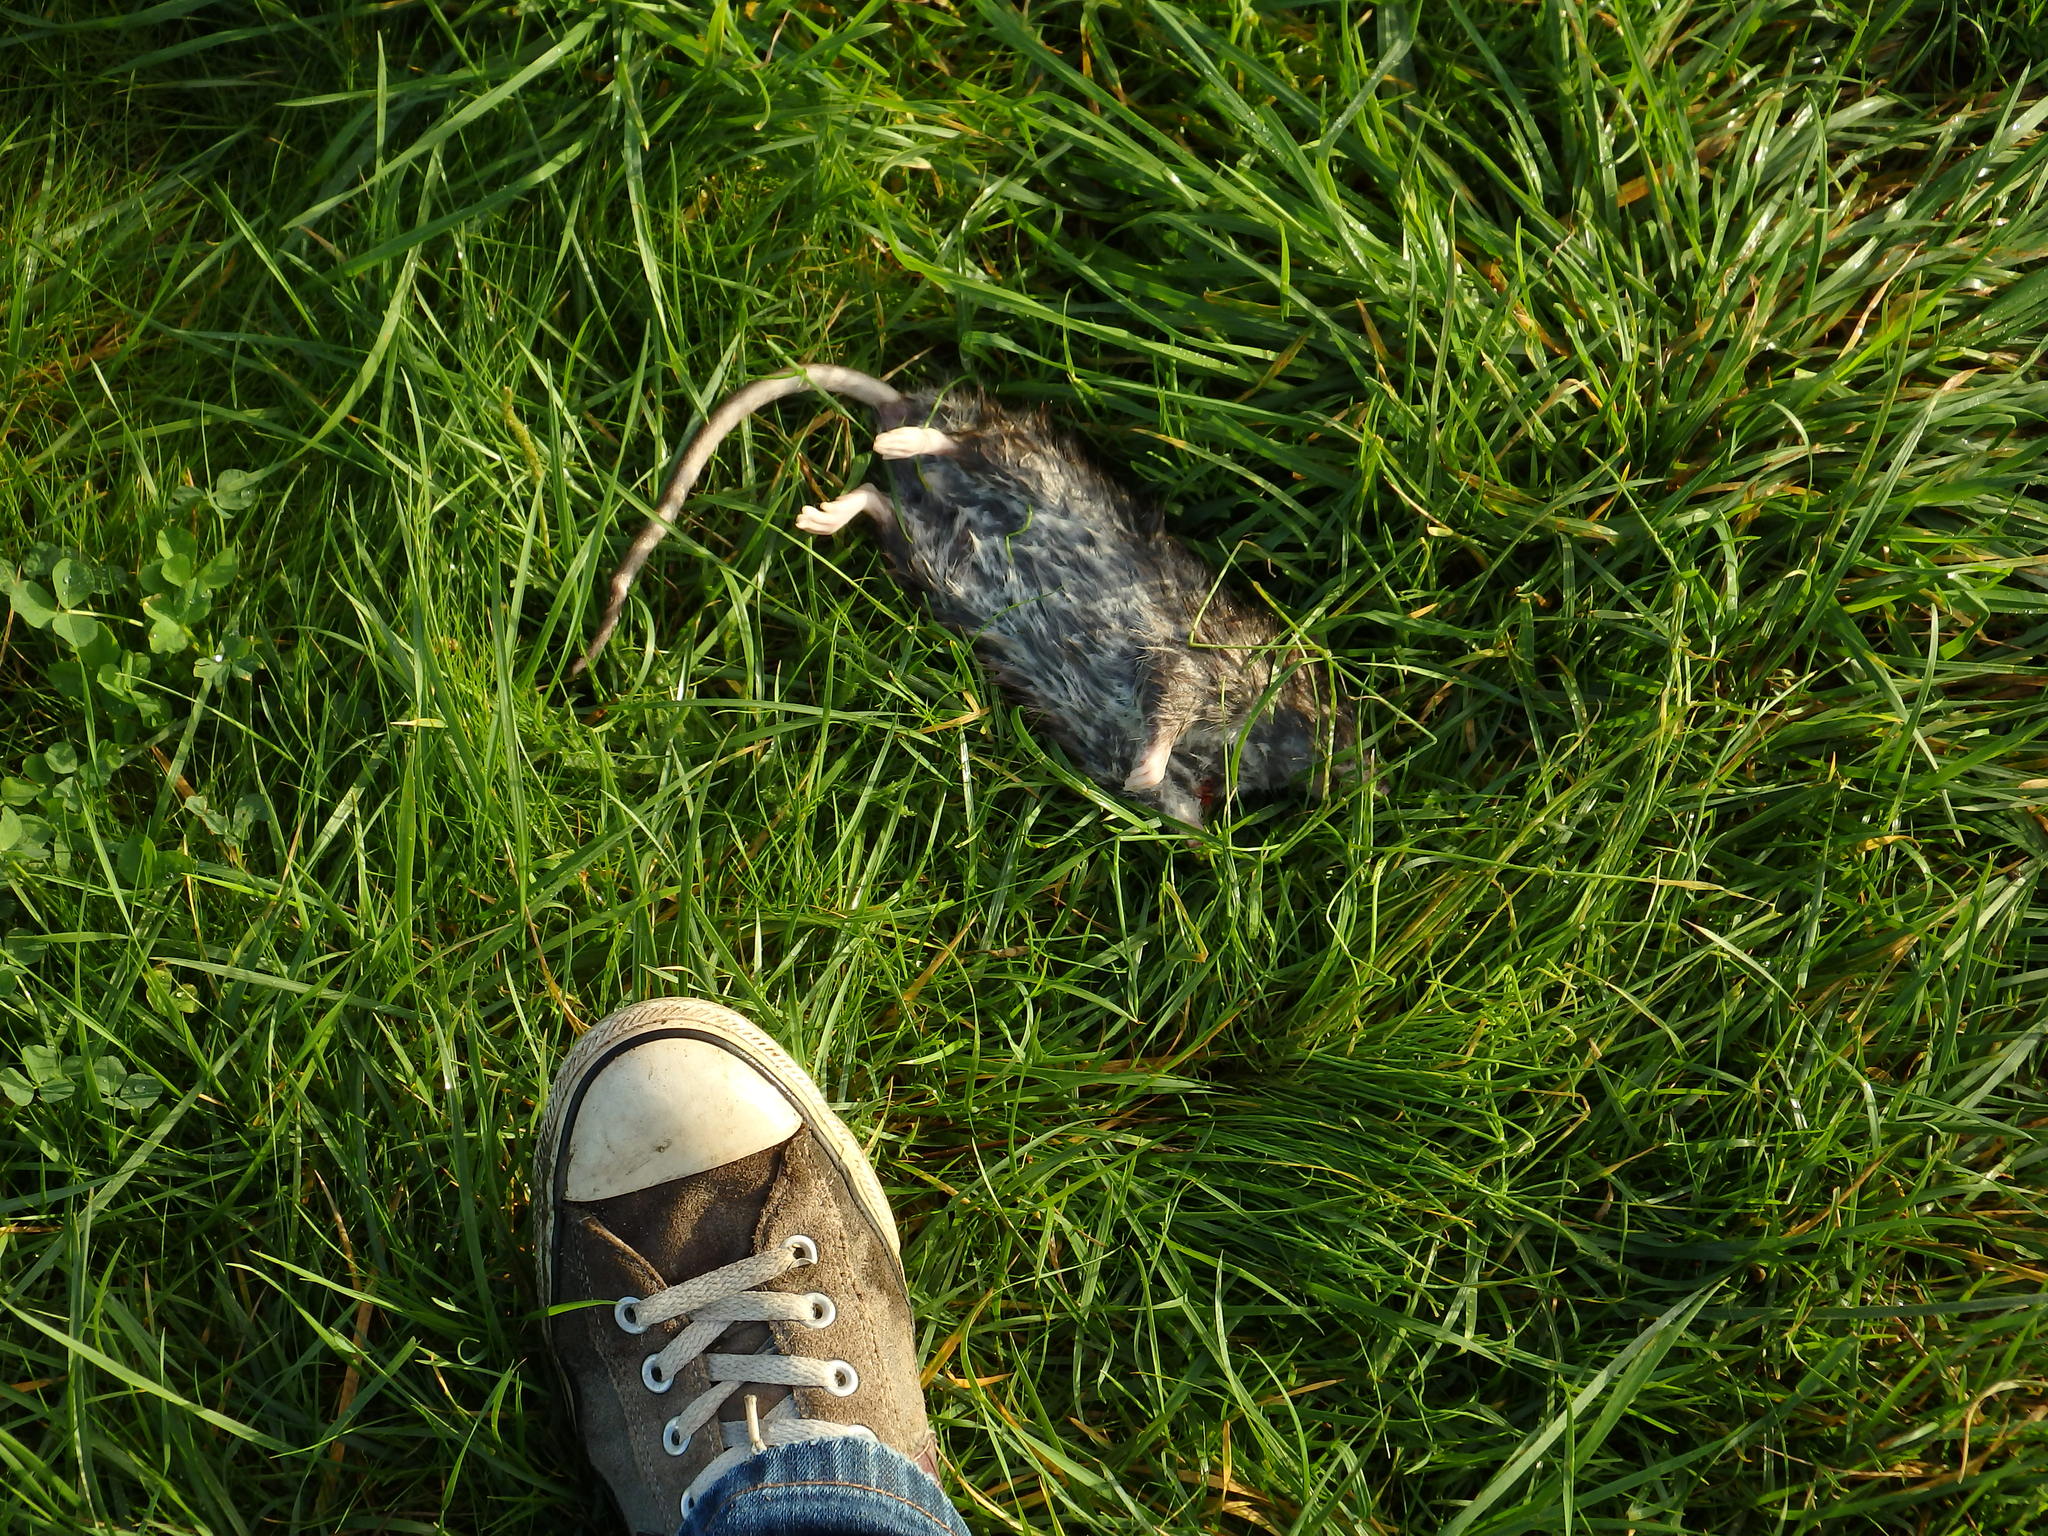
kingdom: Animalia
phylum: Chordata
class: Mammalia
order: Rodentia
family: Muridae
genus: Rattus
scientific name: Rattus norvegicus
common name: Brown rat
